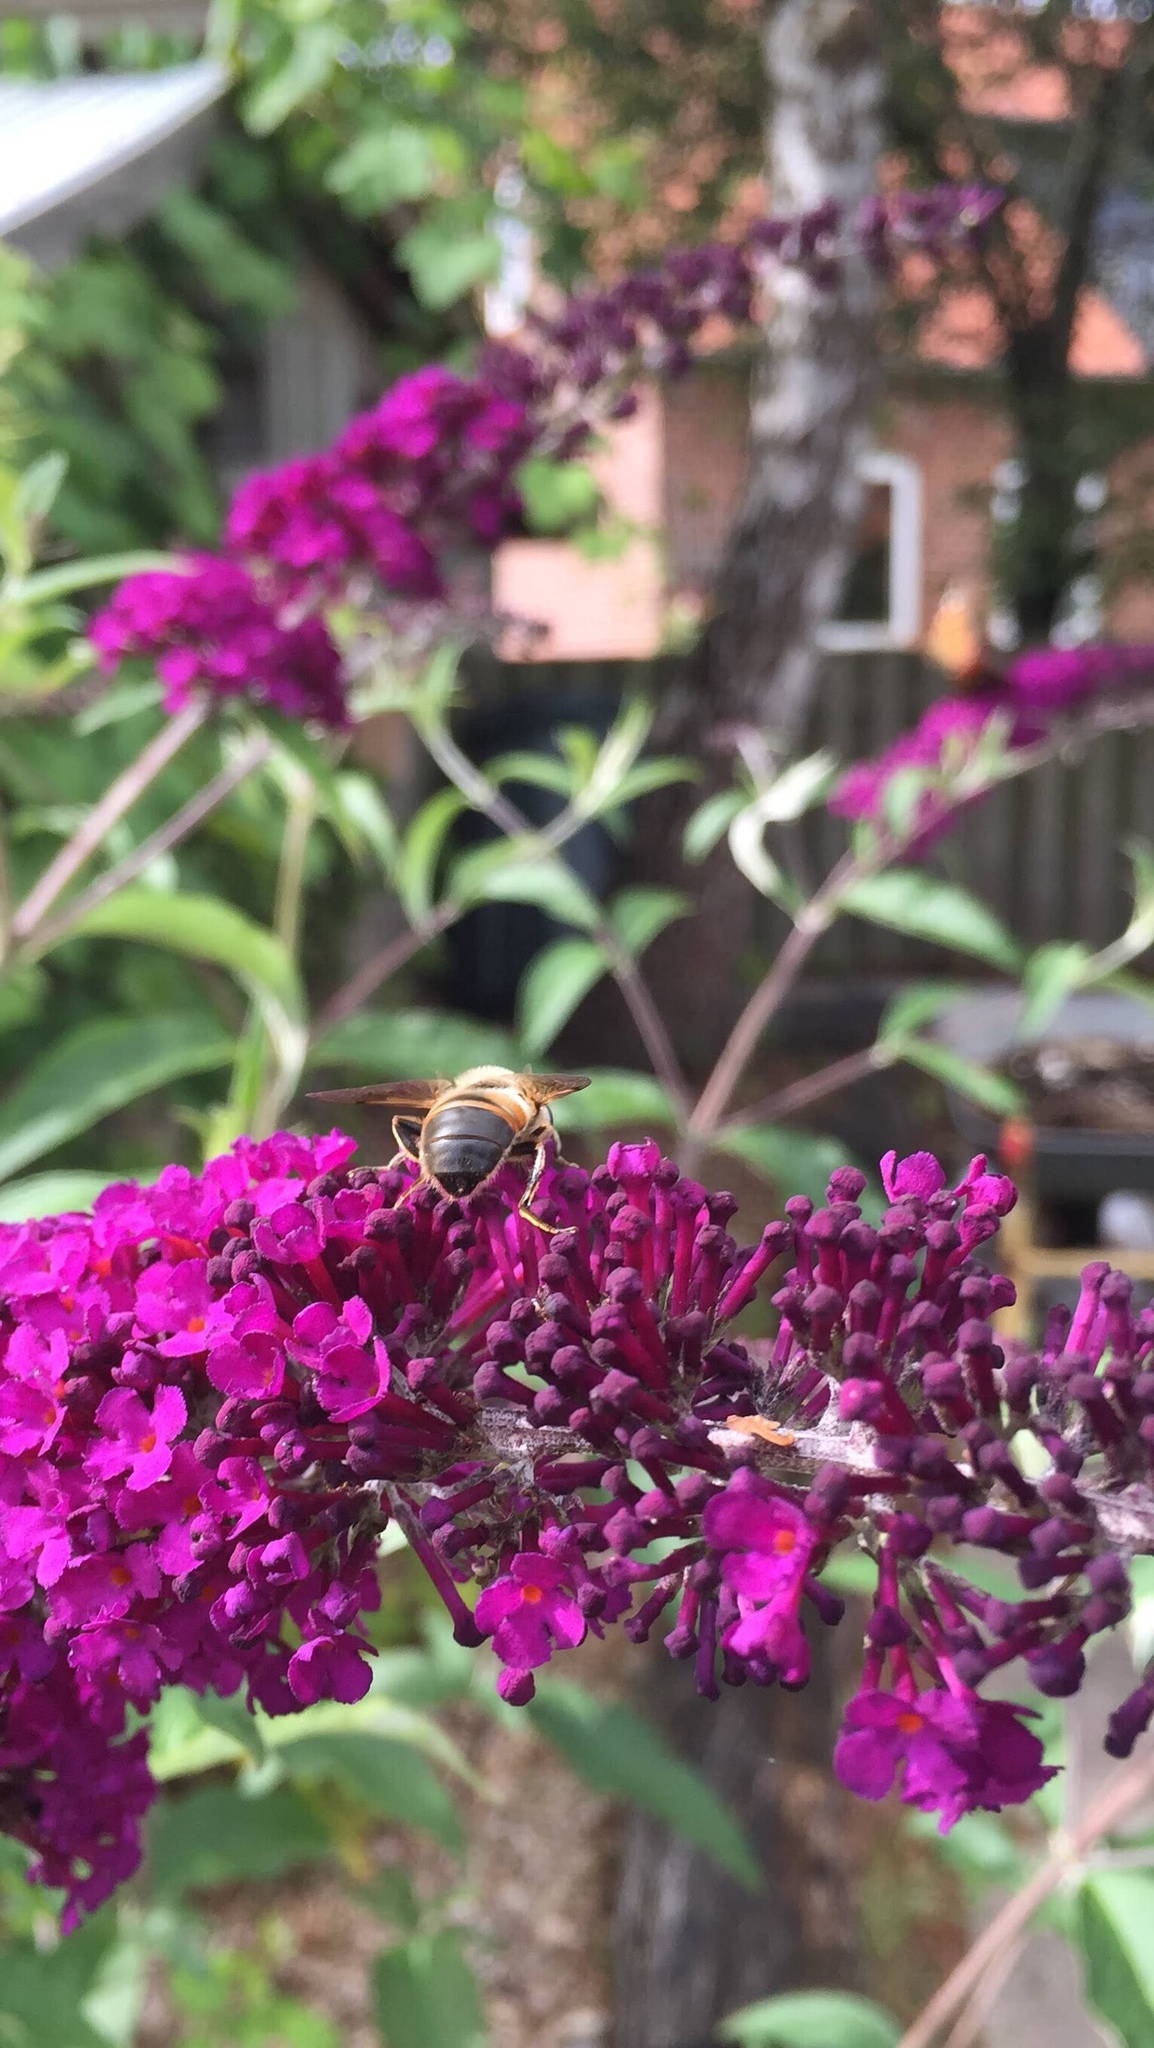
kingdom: Animalia
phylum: Arthropoda
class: Insecta
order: Diptera
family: Syrphidae
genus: Eristalis
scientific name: Eristalis tenax
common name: Drone fly
